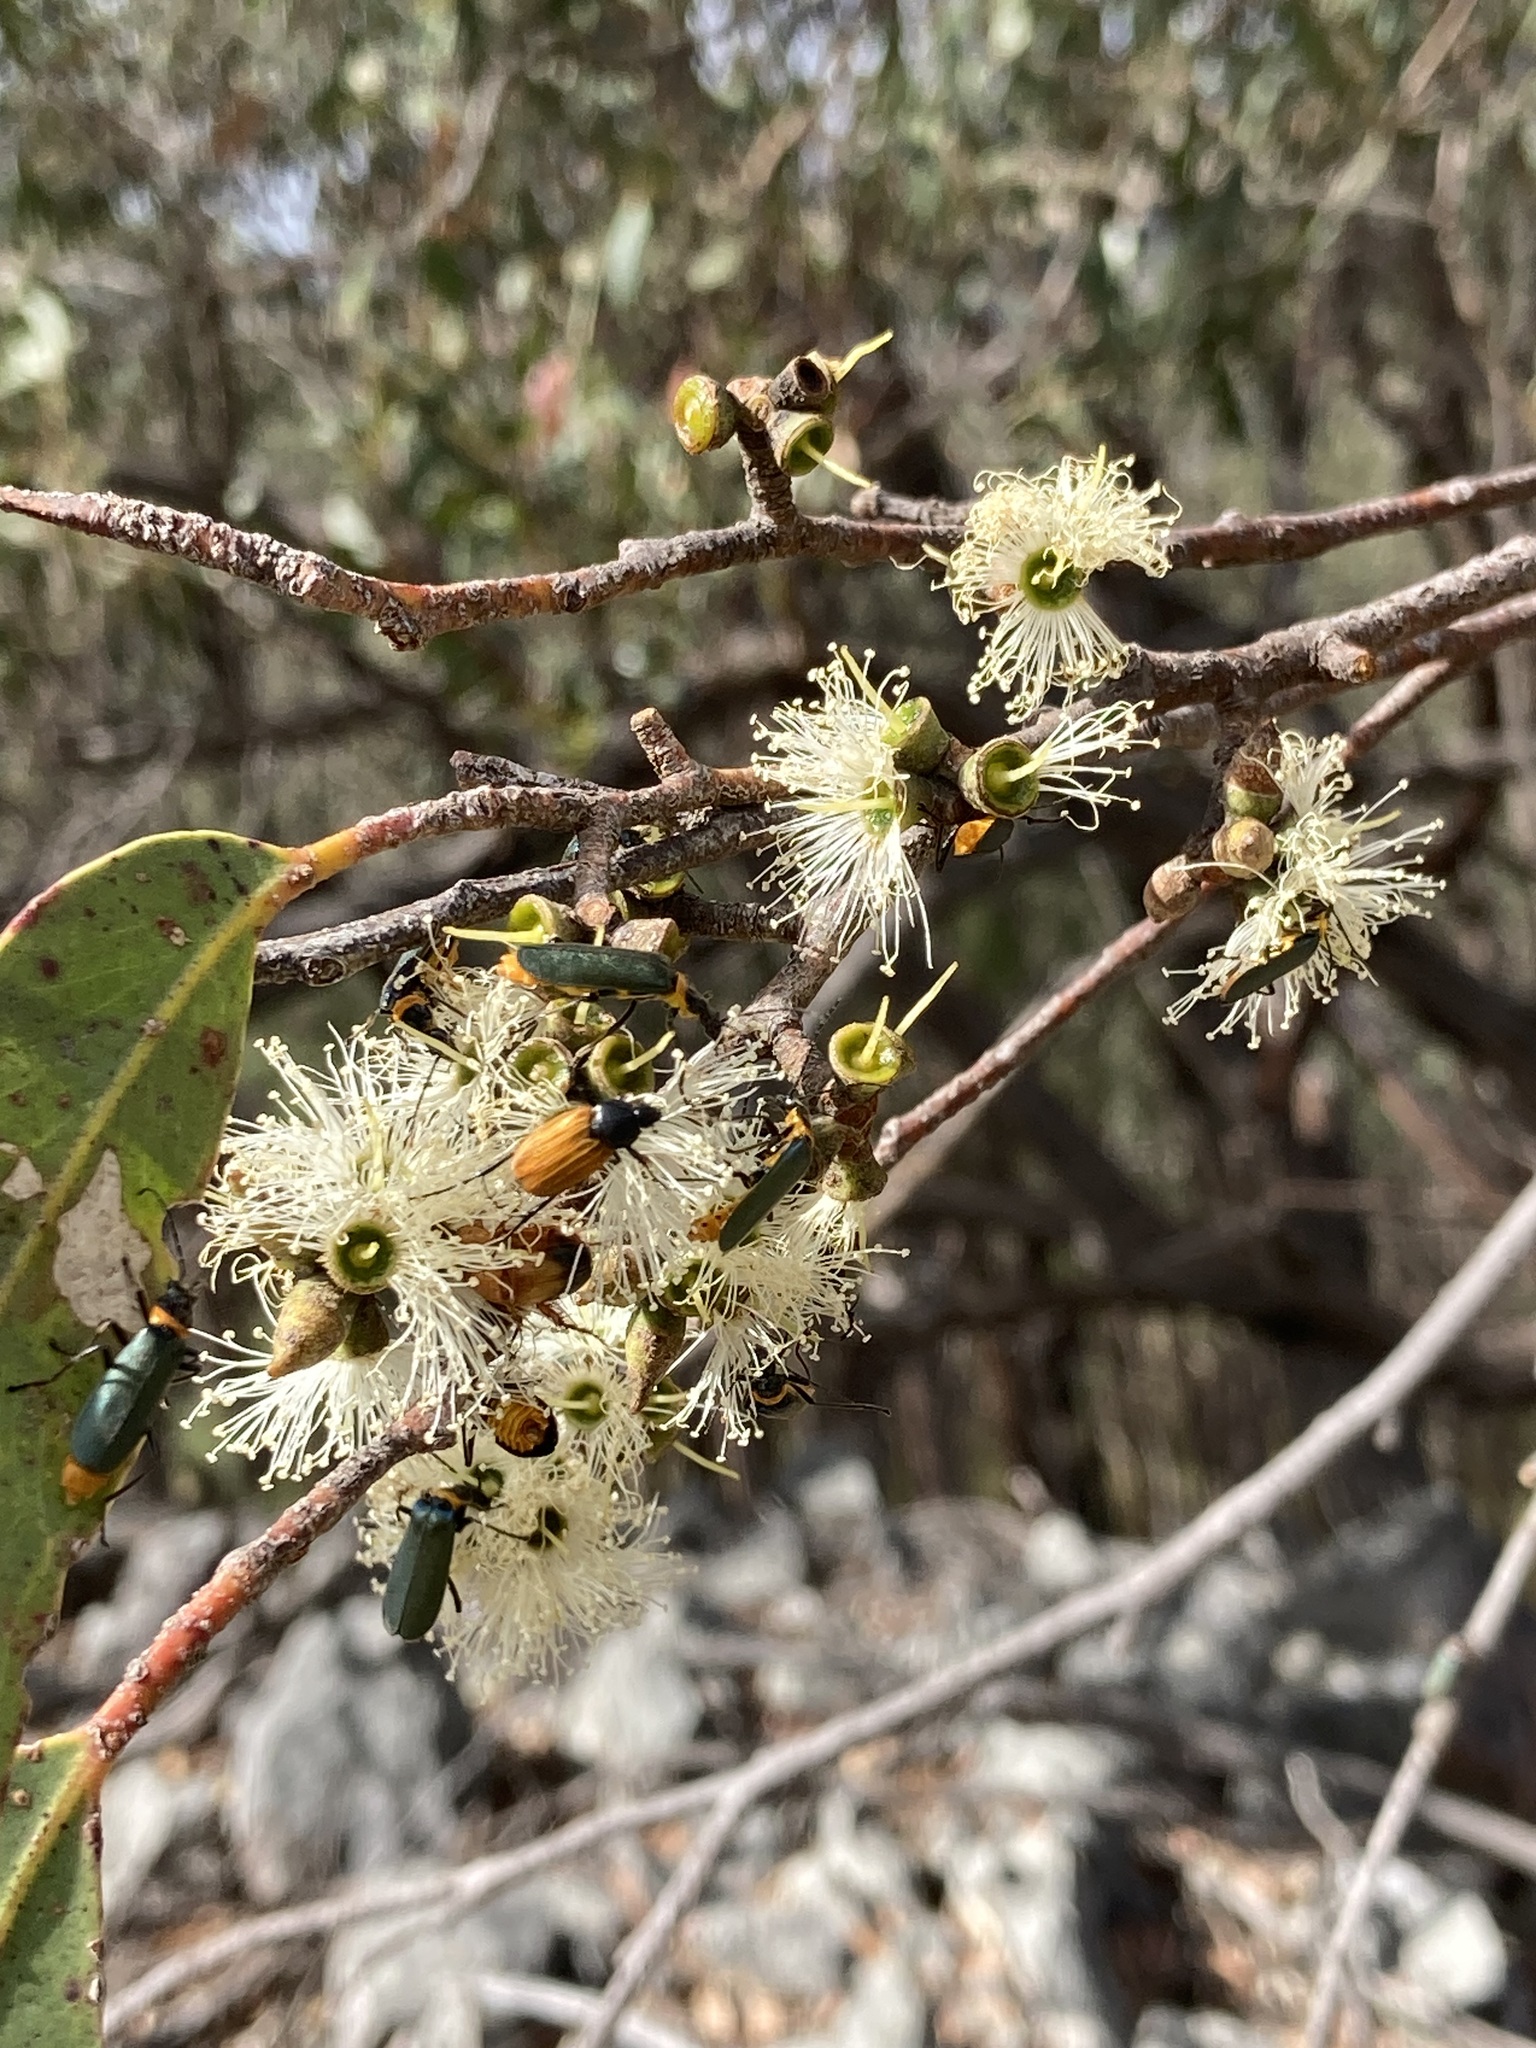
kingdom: Animalia
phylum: Arthropoda
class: Insecta
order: Coleoptera
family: Cantharidae
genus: Chauliognathus
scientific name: Chauliognathus
